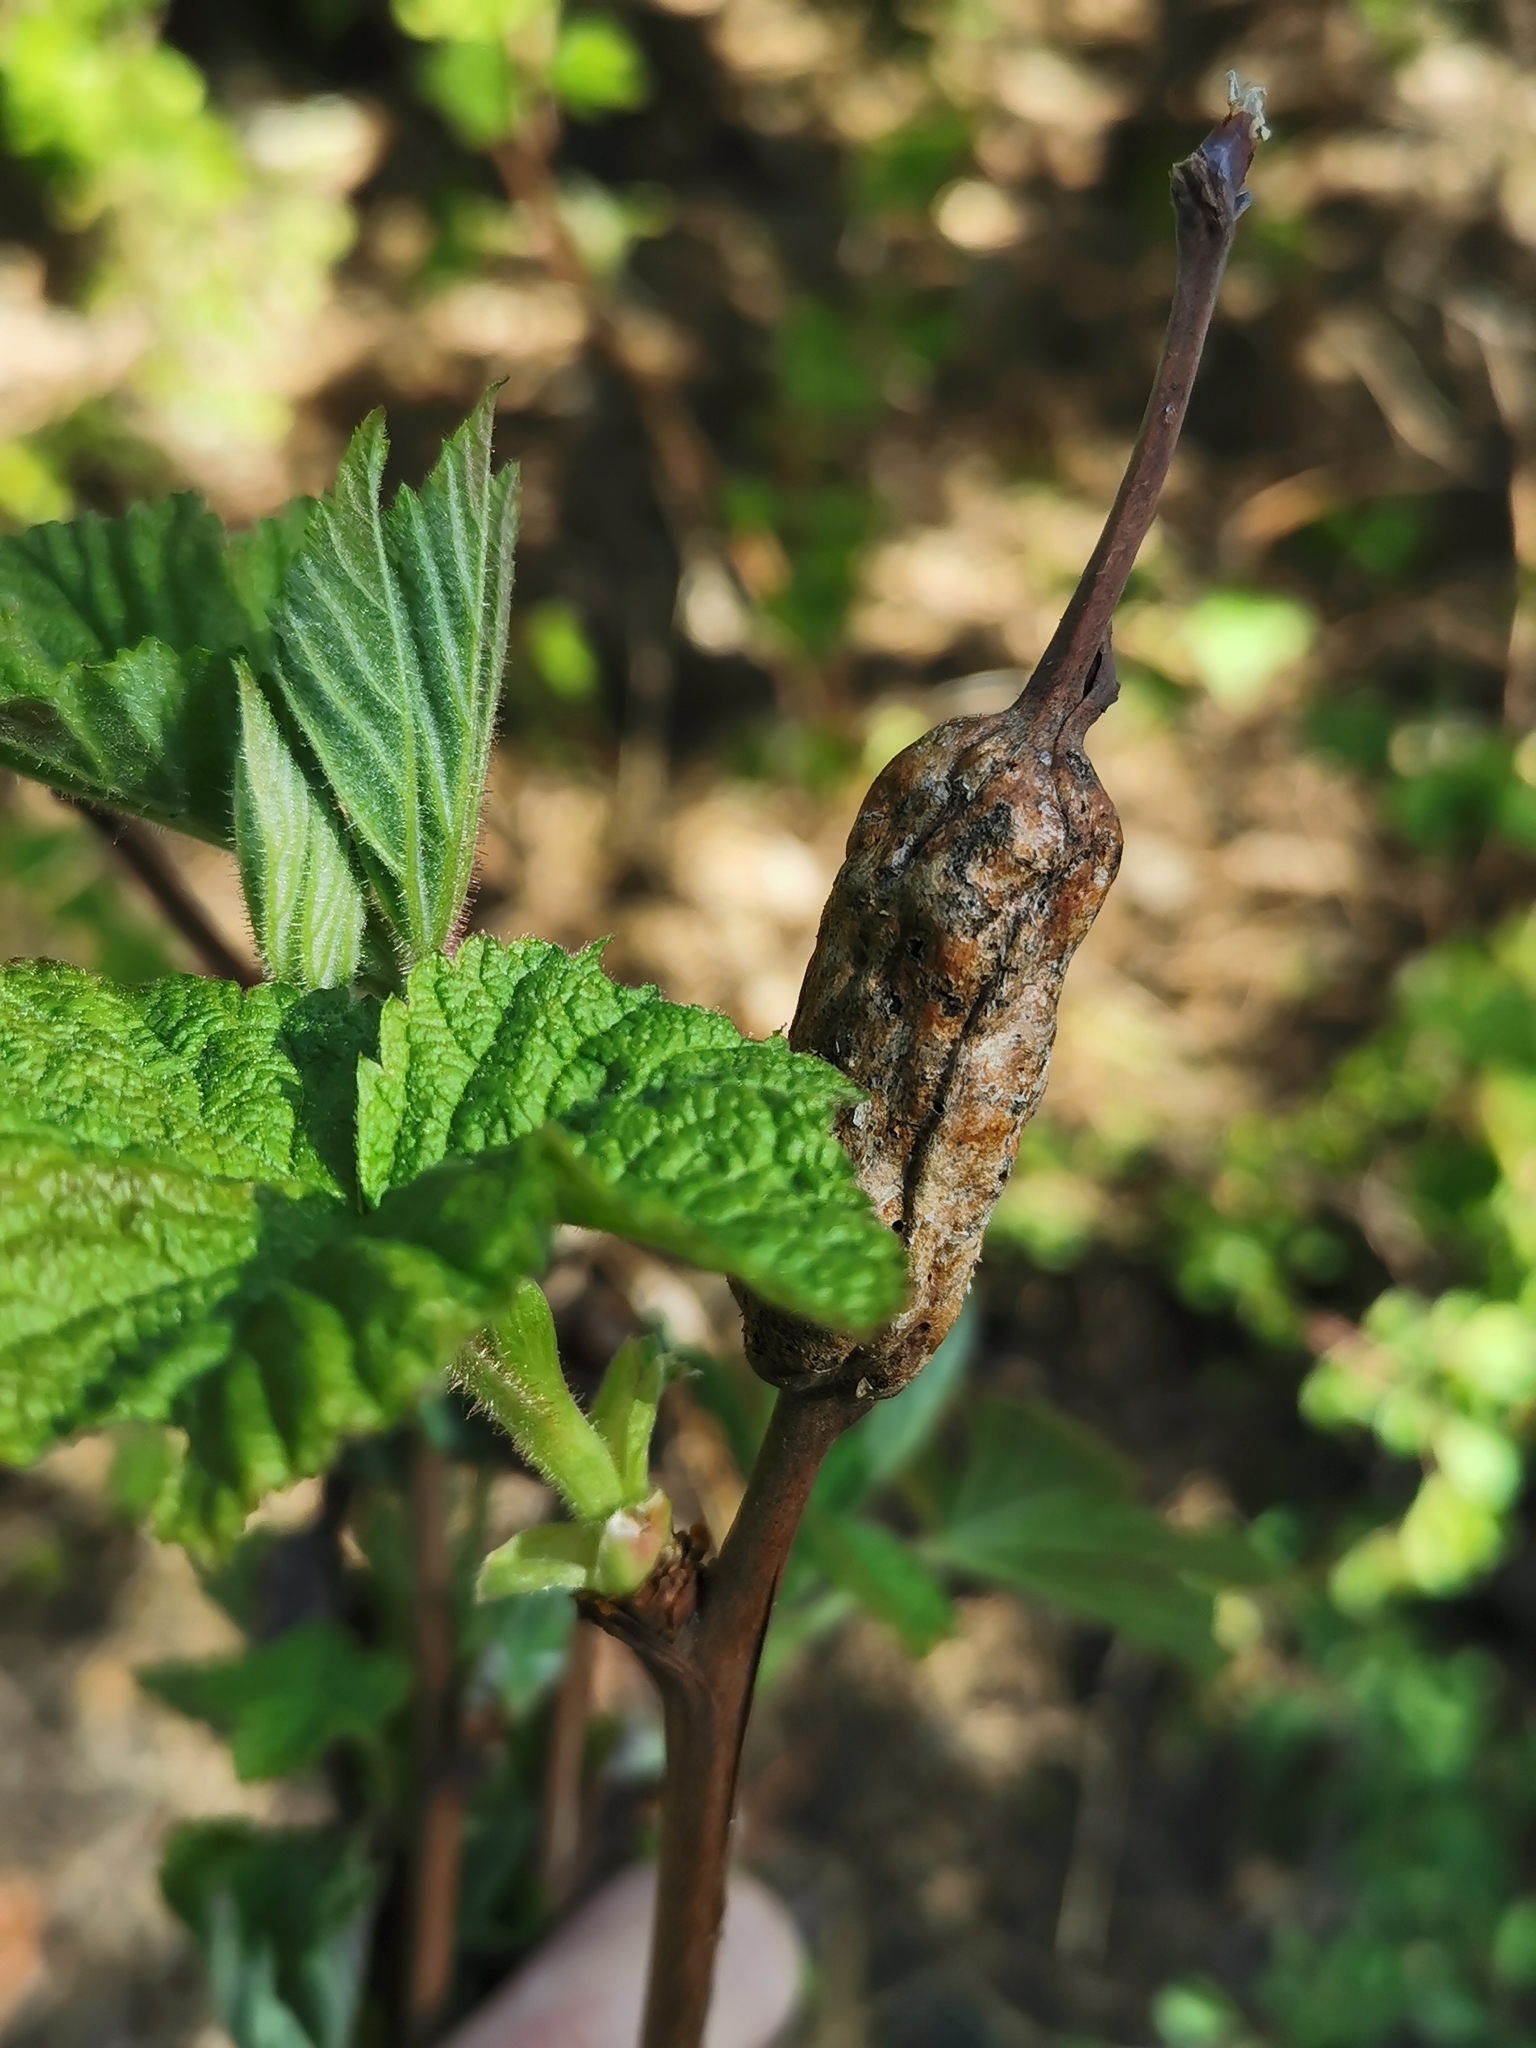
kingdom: Animalia
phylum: Arthropoda
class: Insecta
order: Hymenoptera
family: Cynipidae
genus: Diastrophus
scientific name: Diastrophus
